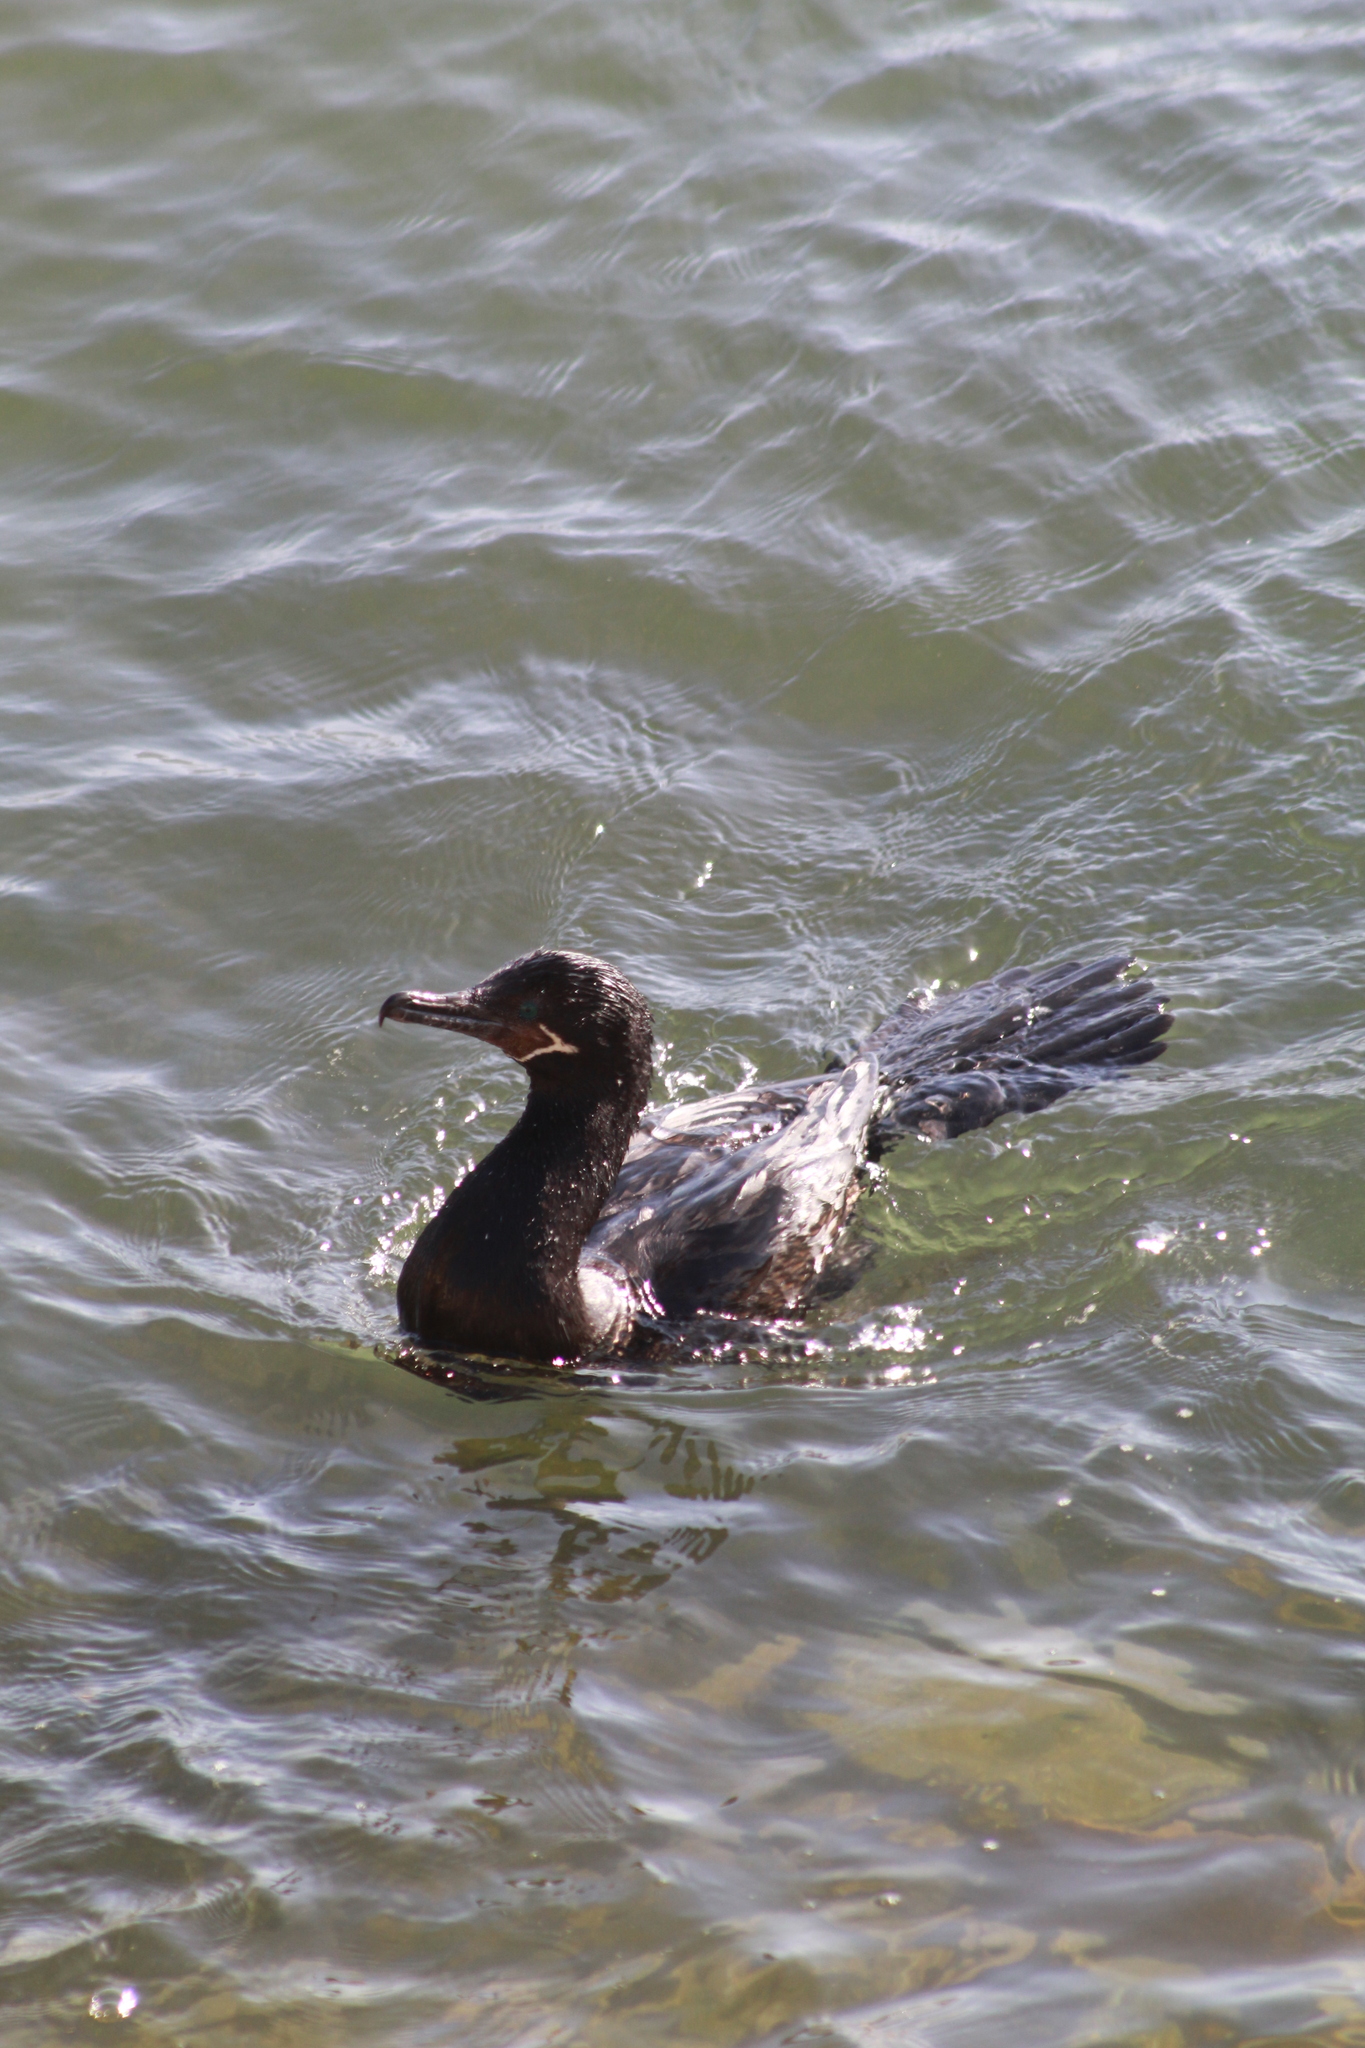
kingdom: Animalia
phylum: Chordata
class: Aves
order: Suliformes
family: Phalacrocoracidae
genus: Phalacrocorax
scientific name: Phalacrocorax brasilianus
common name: Neotropic cormorant
